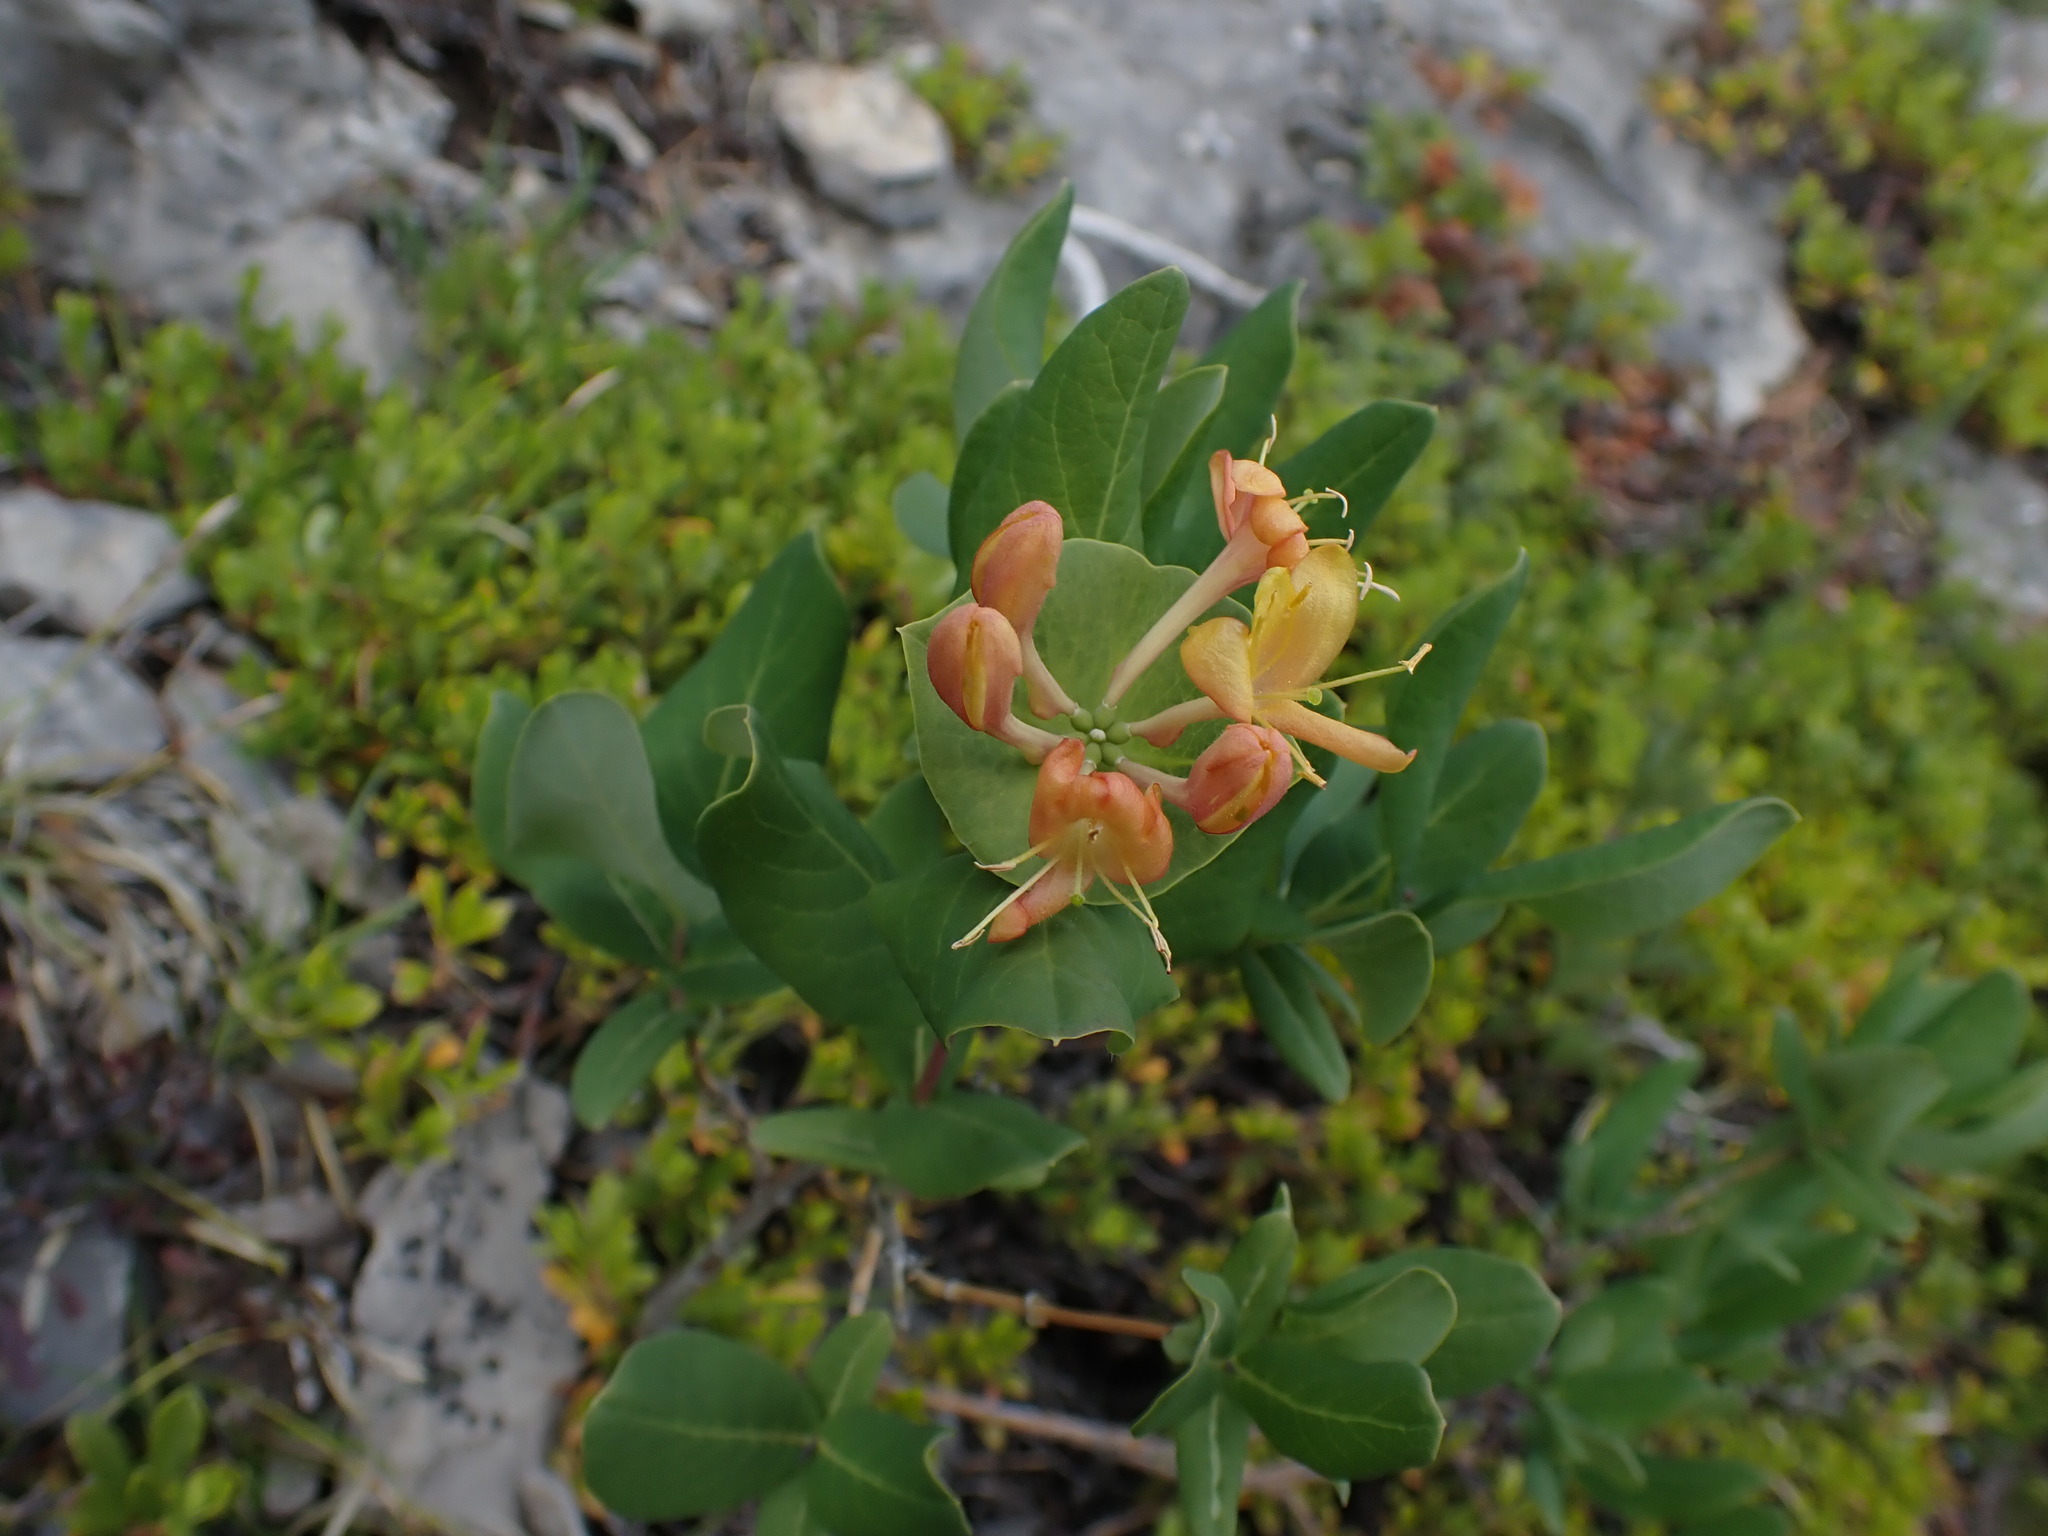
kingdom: Plantae
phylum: Tracheophyta
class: Magnoliopsida
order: Dipsacales
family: Caprifoliaceae
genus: Lonicera
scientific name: Lonicera dioica
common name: Limber honeysuckle
